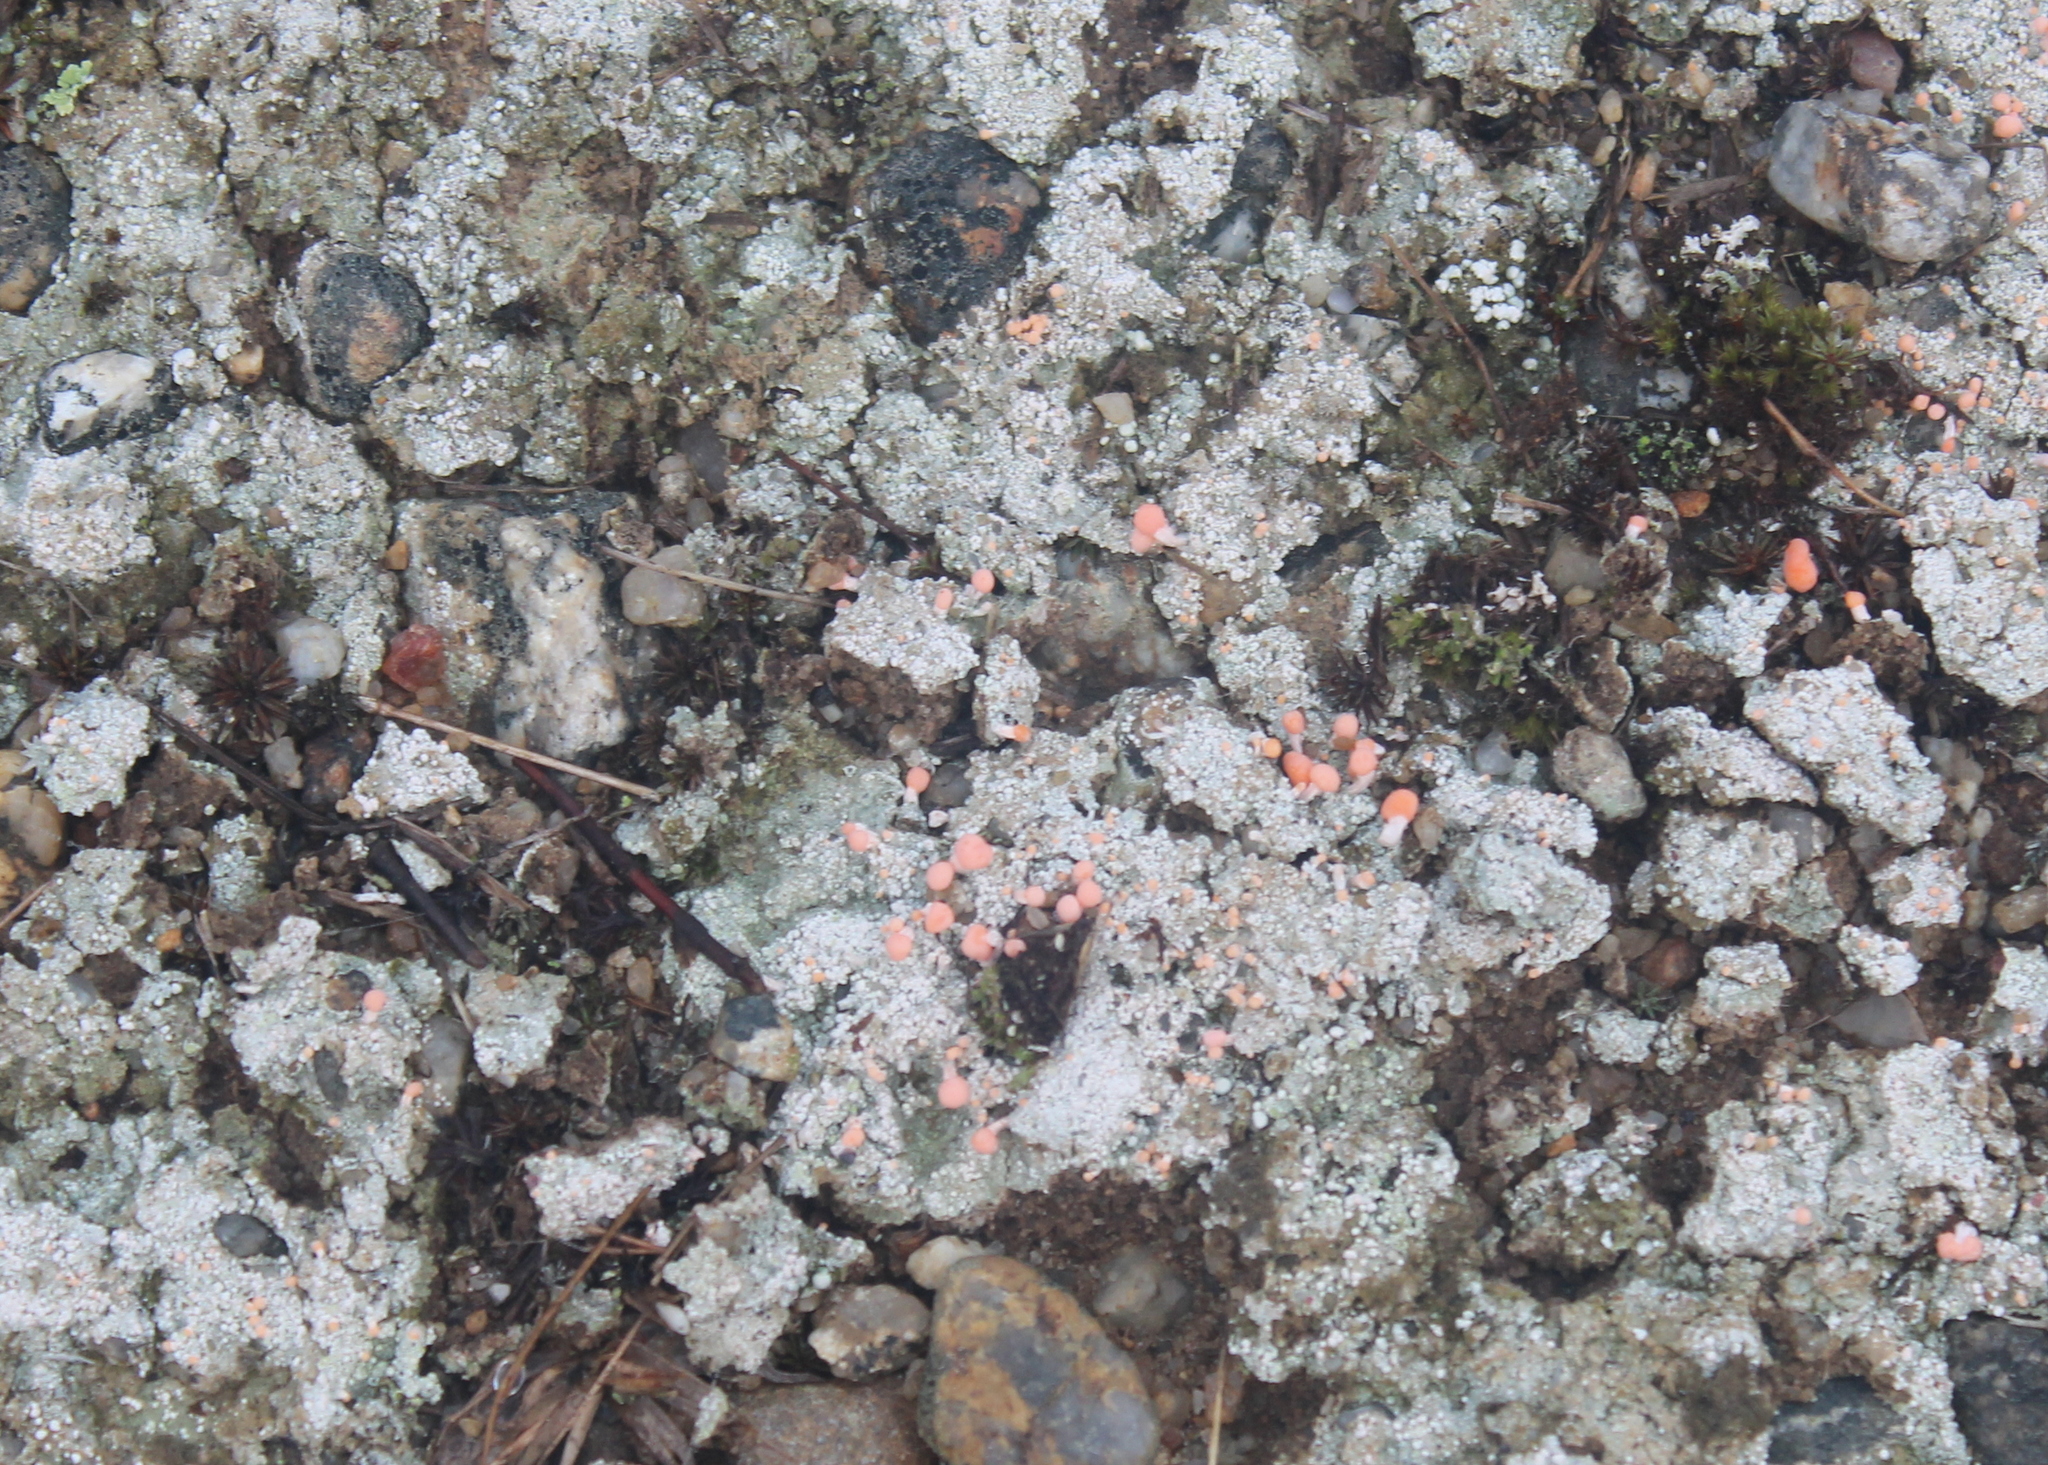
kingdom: Fungi
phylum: Ascomycota
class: Lecanoromycetes
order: Pertusariales
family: Icmadophilaceae
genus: Dibaeis
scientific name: Dibaeis baeomyces
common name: Pink earth lichen
